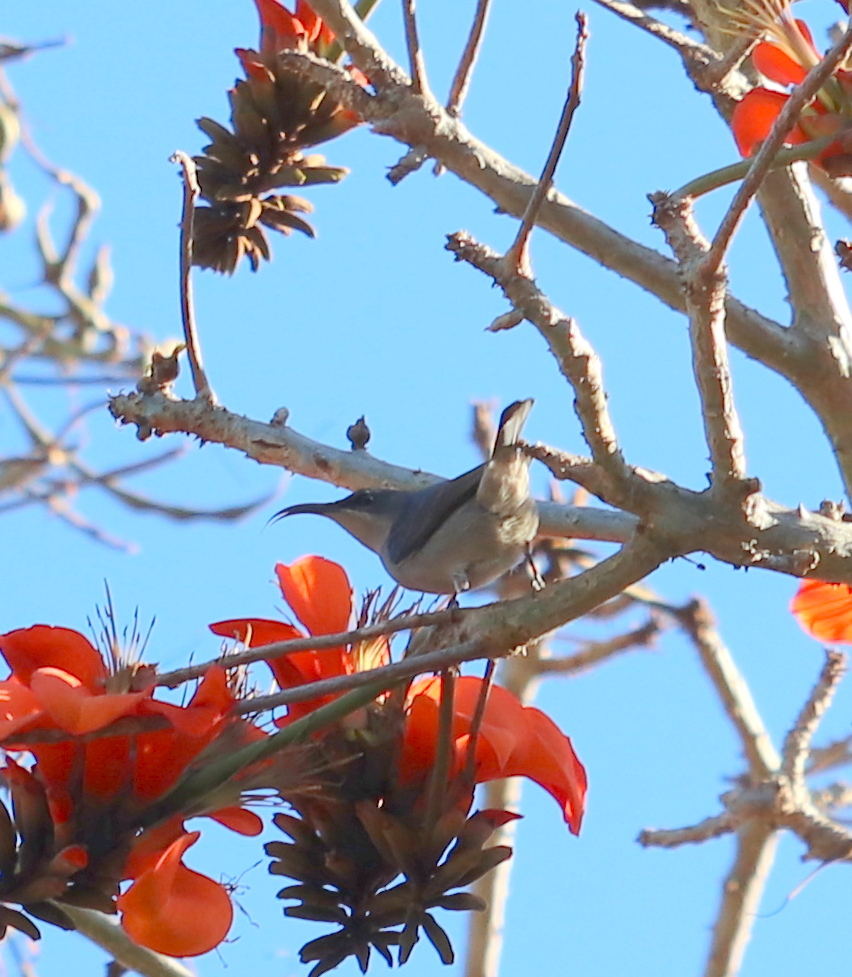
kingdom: Animalia
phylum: Chordata
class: Aves
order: Passeriformes
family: Nectariniidae
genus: Cyanomitra
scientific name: Cyanomitra veroxii
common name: Grey sunbird
